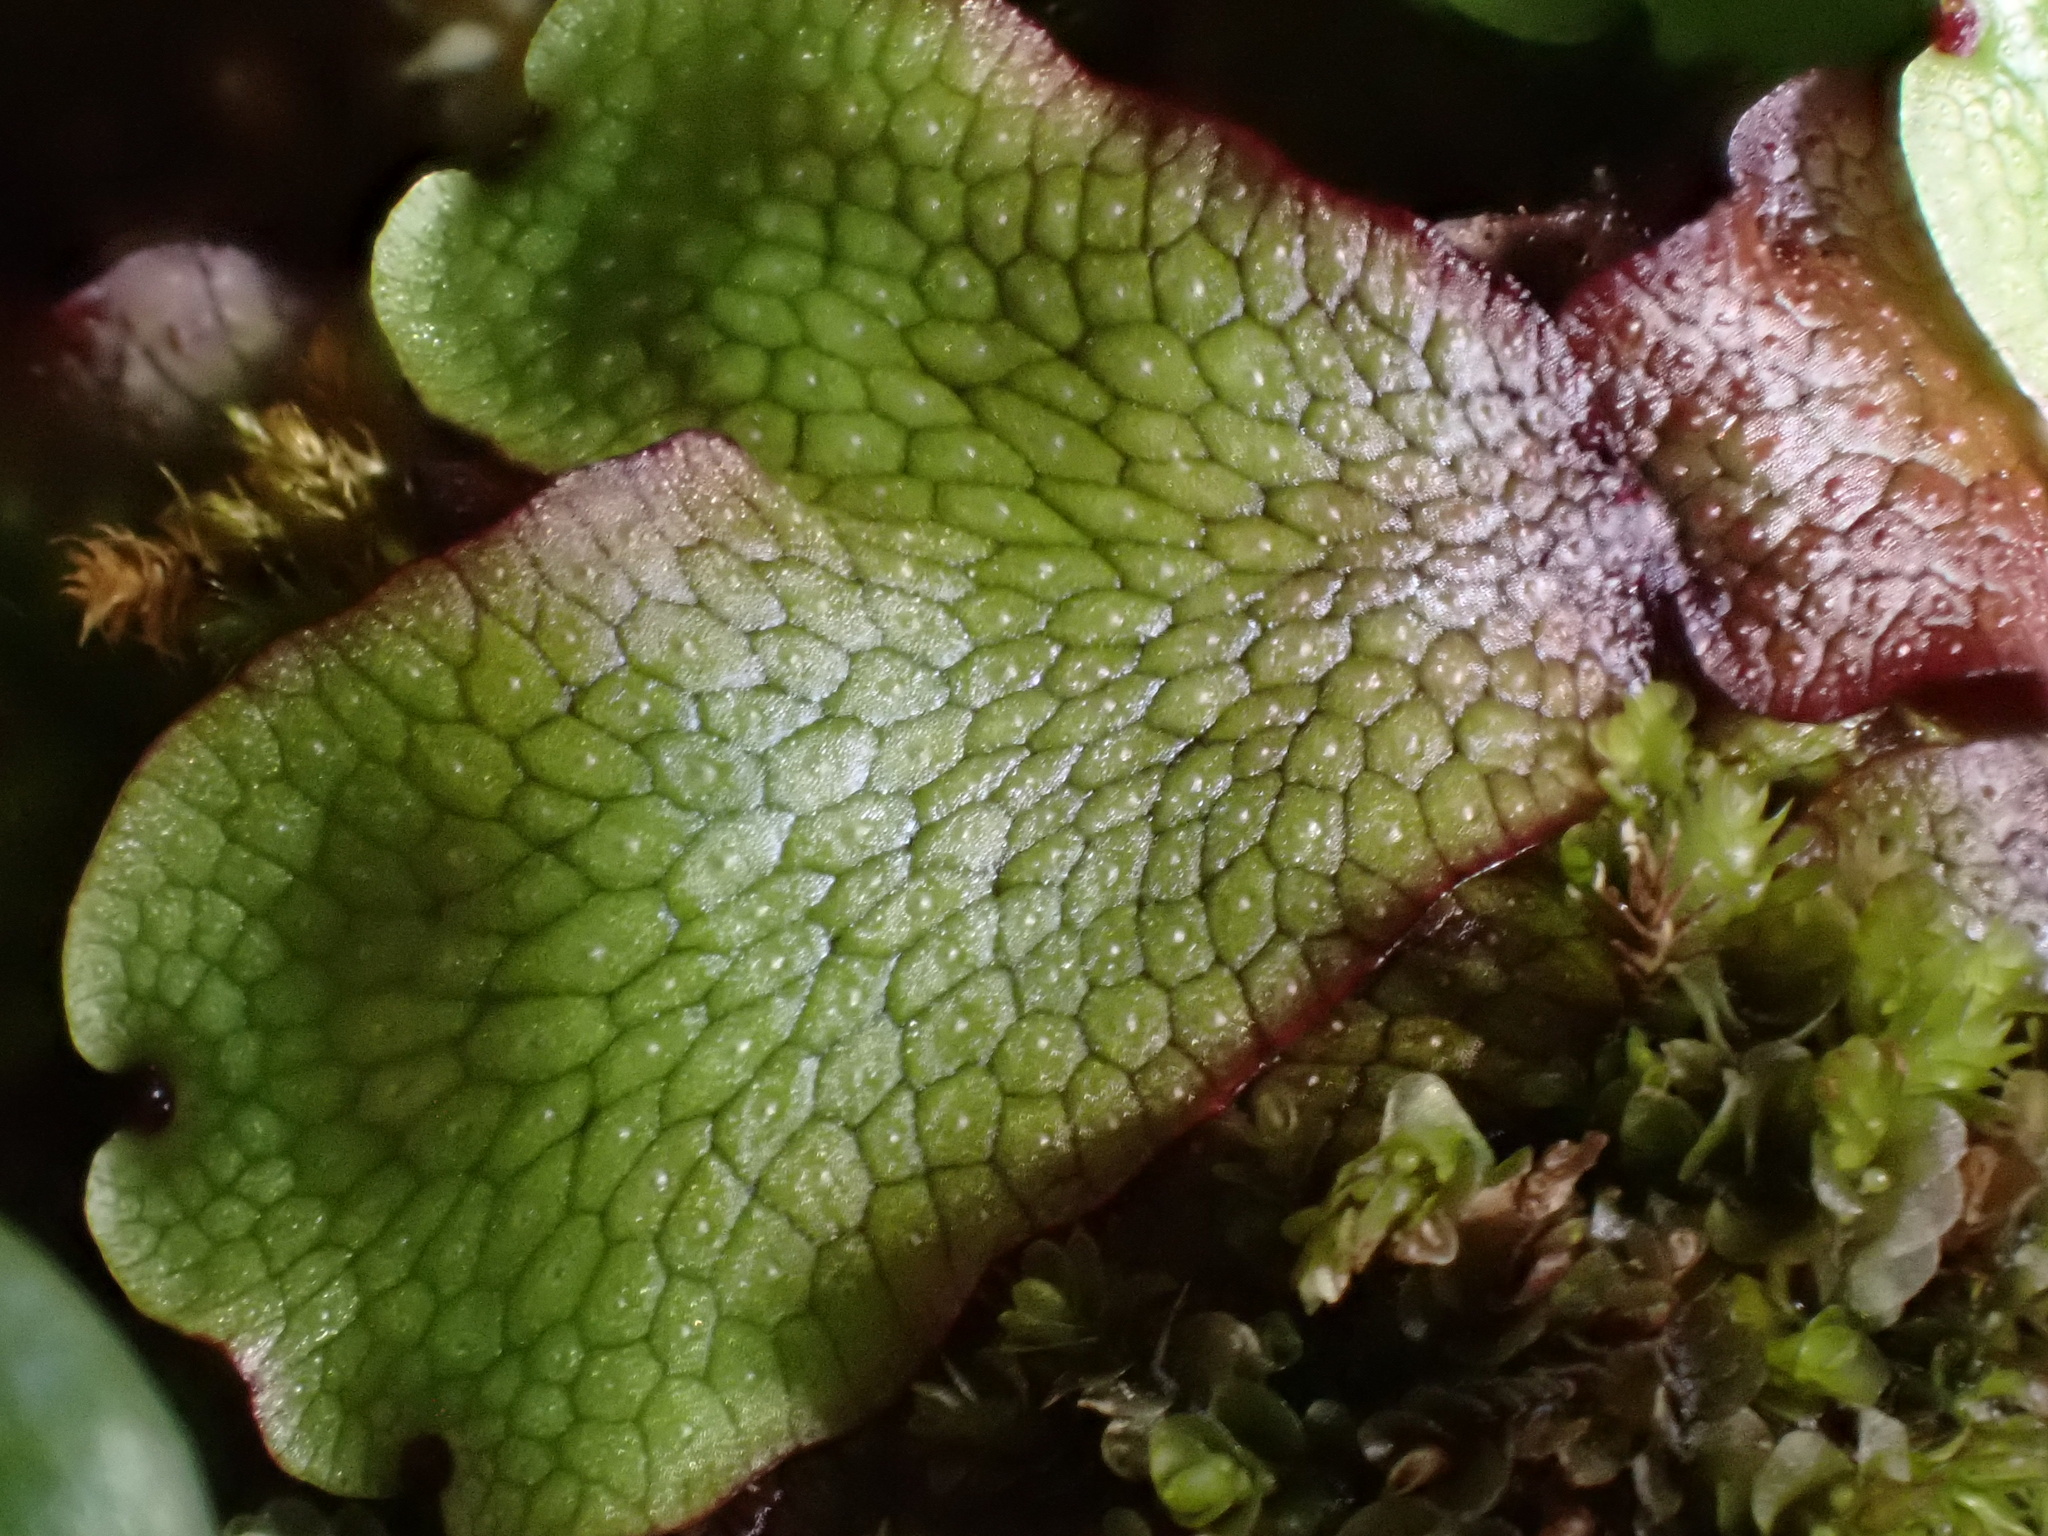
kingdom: Plantae
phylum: Marchantiophyta
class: Marchantiopsida
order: Marchantiales
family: Conocephalaceae
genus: Conocephalum
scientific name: Conocephalum salebrosum
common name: Cat-tongue liverwort
